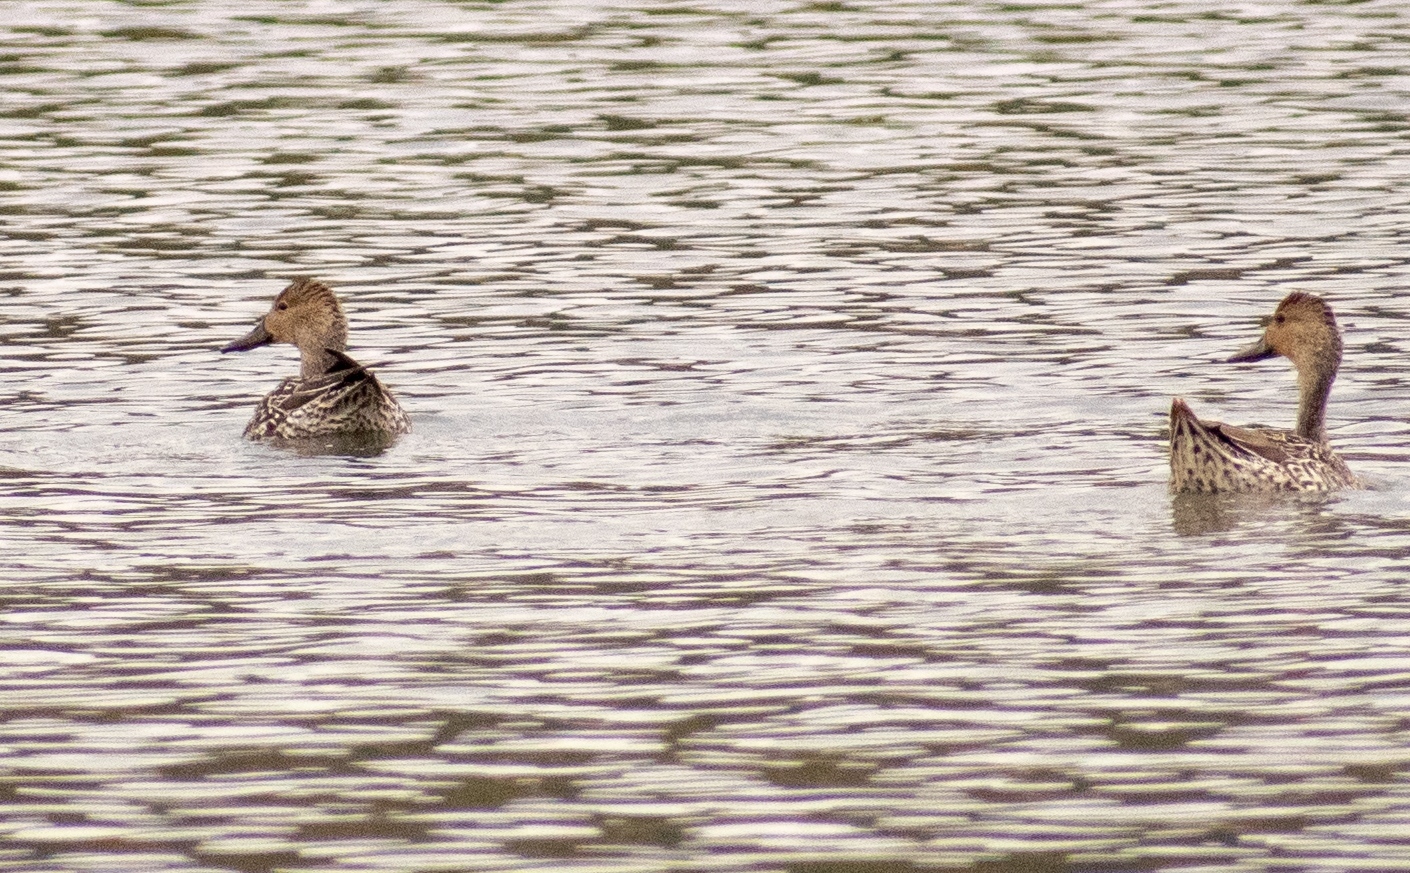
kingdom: Animalia
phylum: Chordata
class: Aves
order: Anseriformes
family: Anatidae
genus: Anas
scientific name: Anas acuta
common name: Northern pintail
